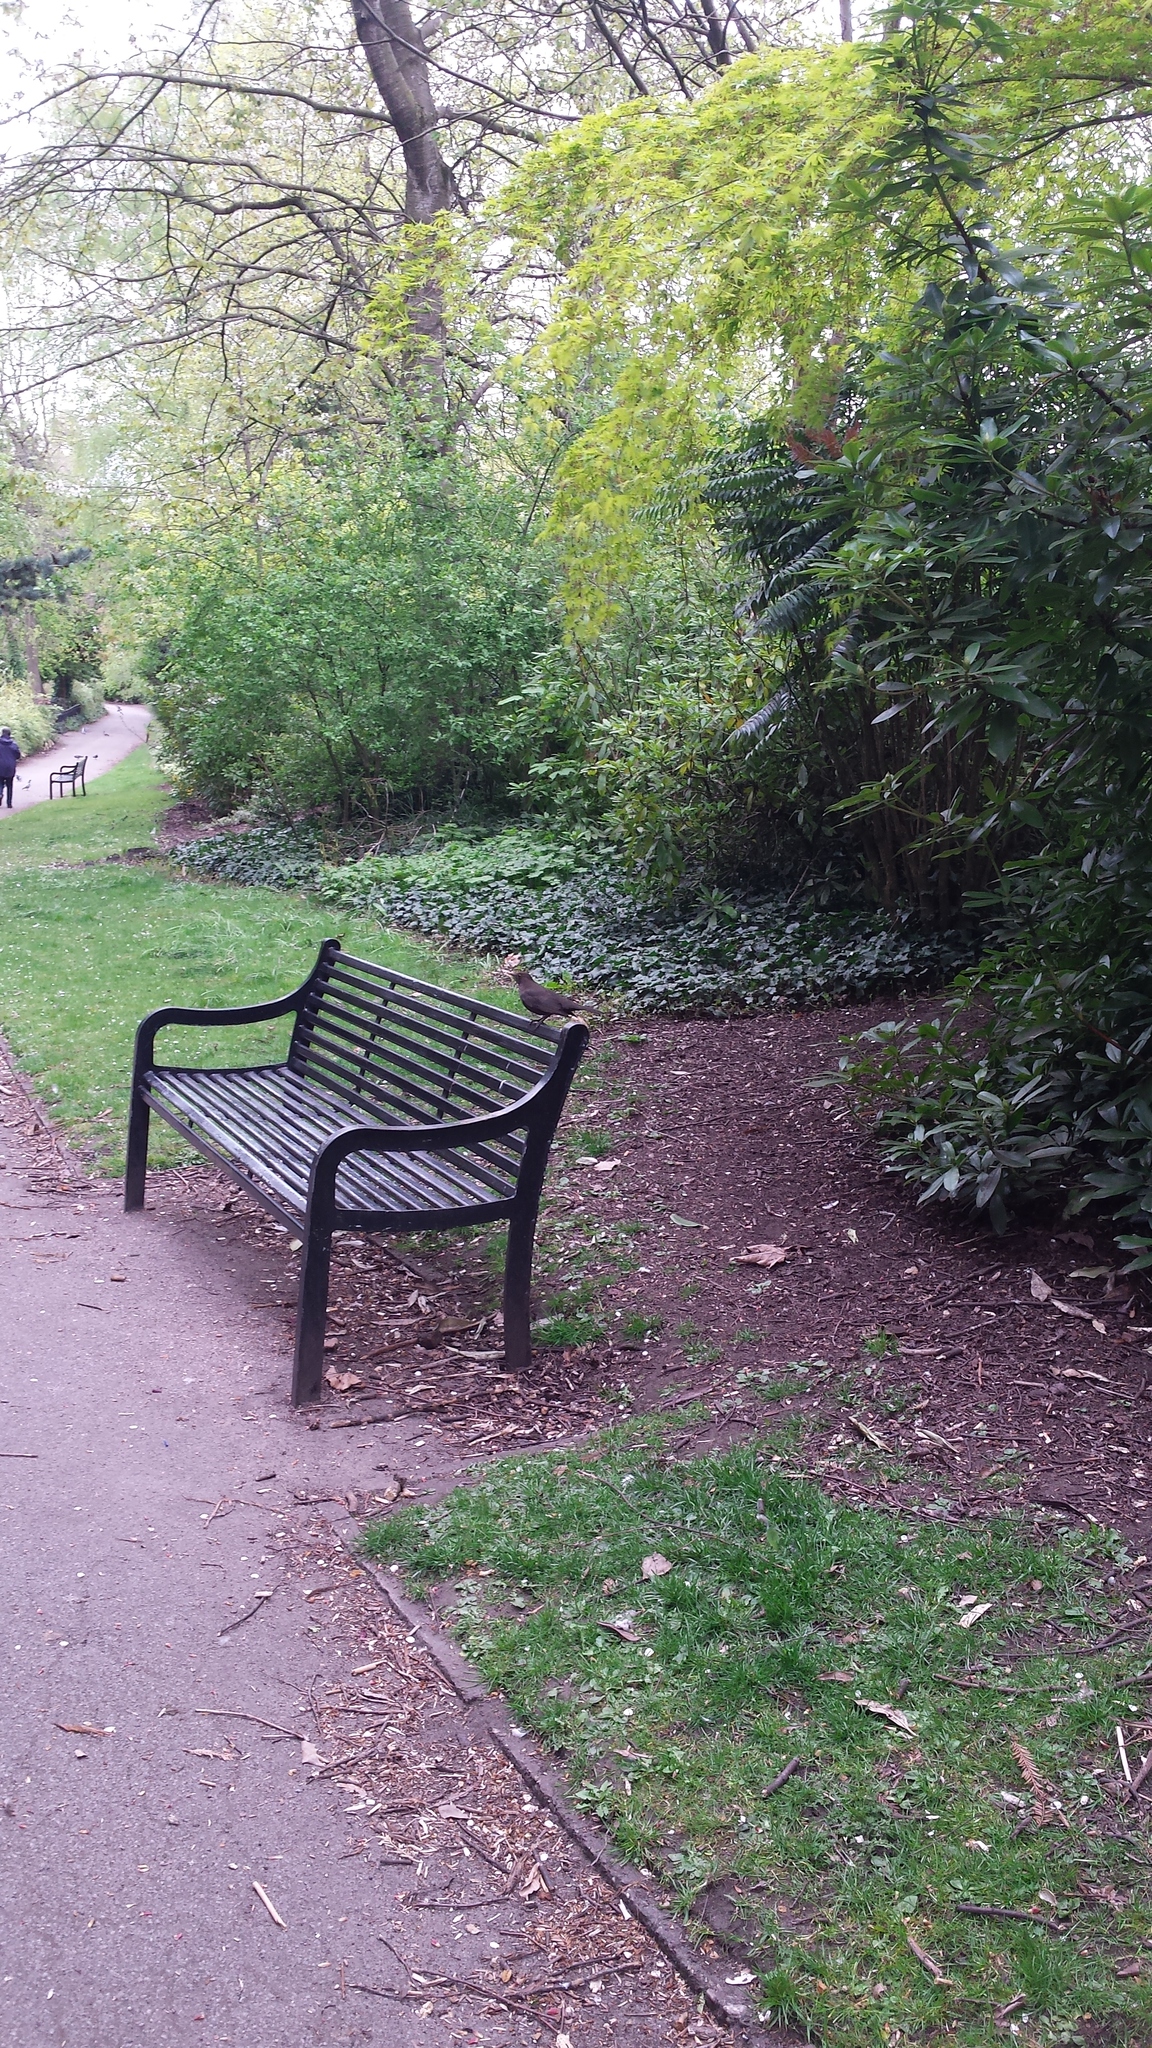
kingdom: Animalia
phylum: Chordata
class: Aves
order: Passeriformes
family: Turdidae
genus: Turdus
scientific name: Turdus merula
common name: Common blackbird
